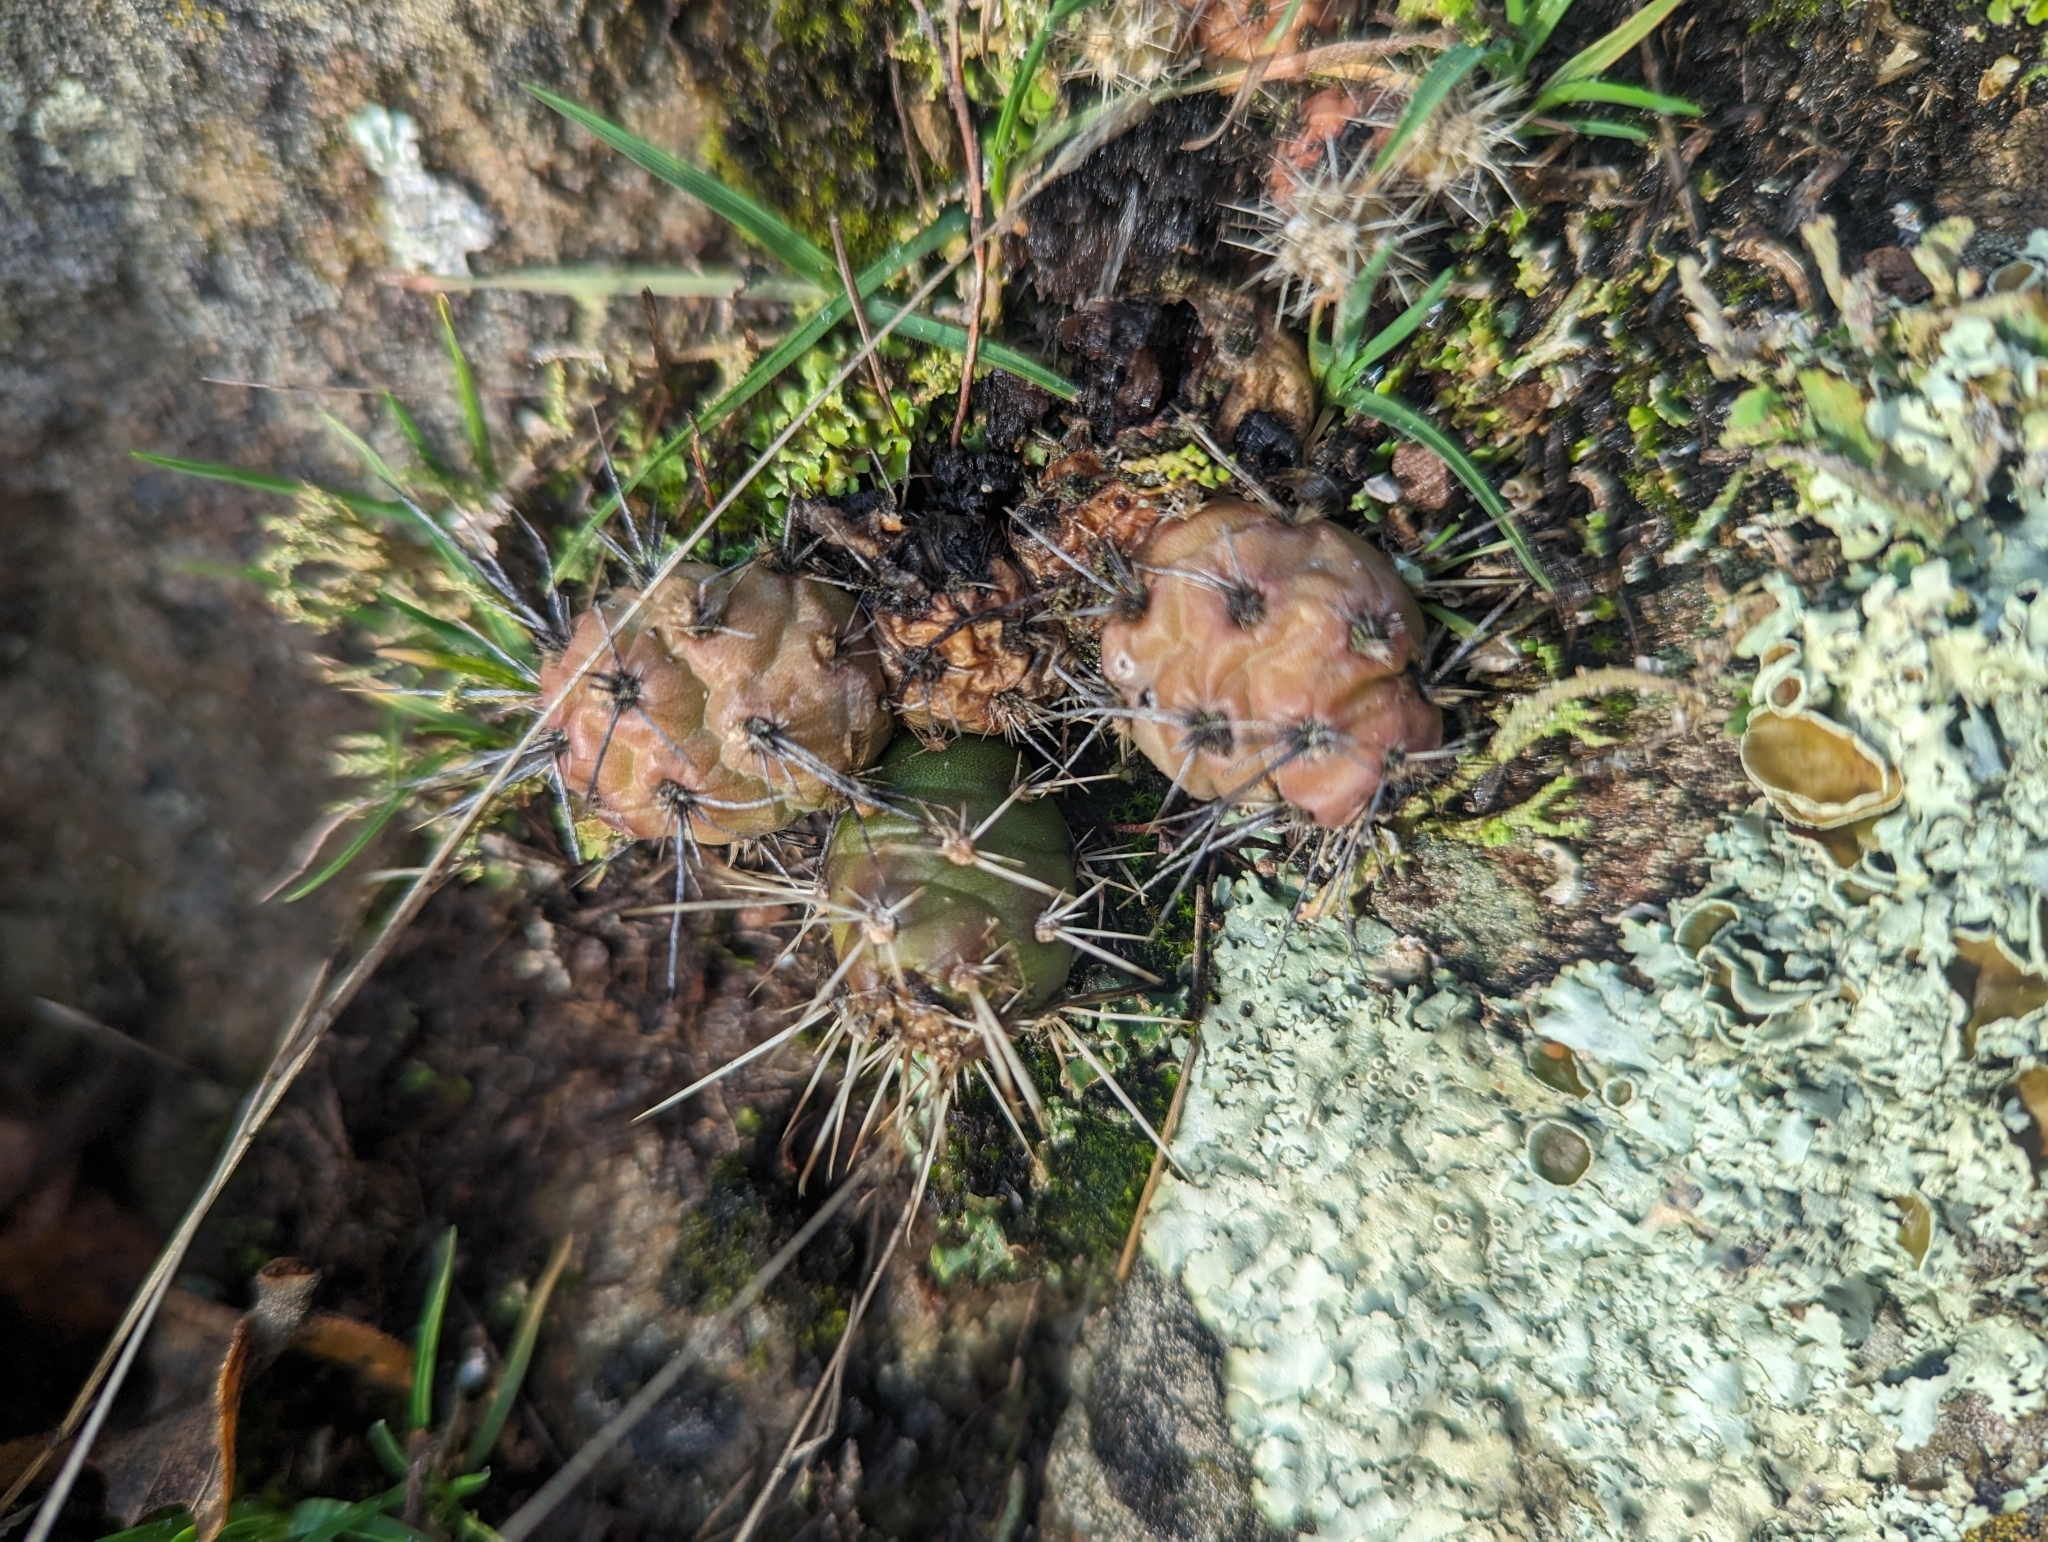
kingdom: Plantae
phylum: Tracheophyta
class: Magnoliopsida
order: Caryophyllales
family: Cactaceae
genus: Opuntia
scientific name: Opuntia fragilis
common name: Brittle cactus
